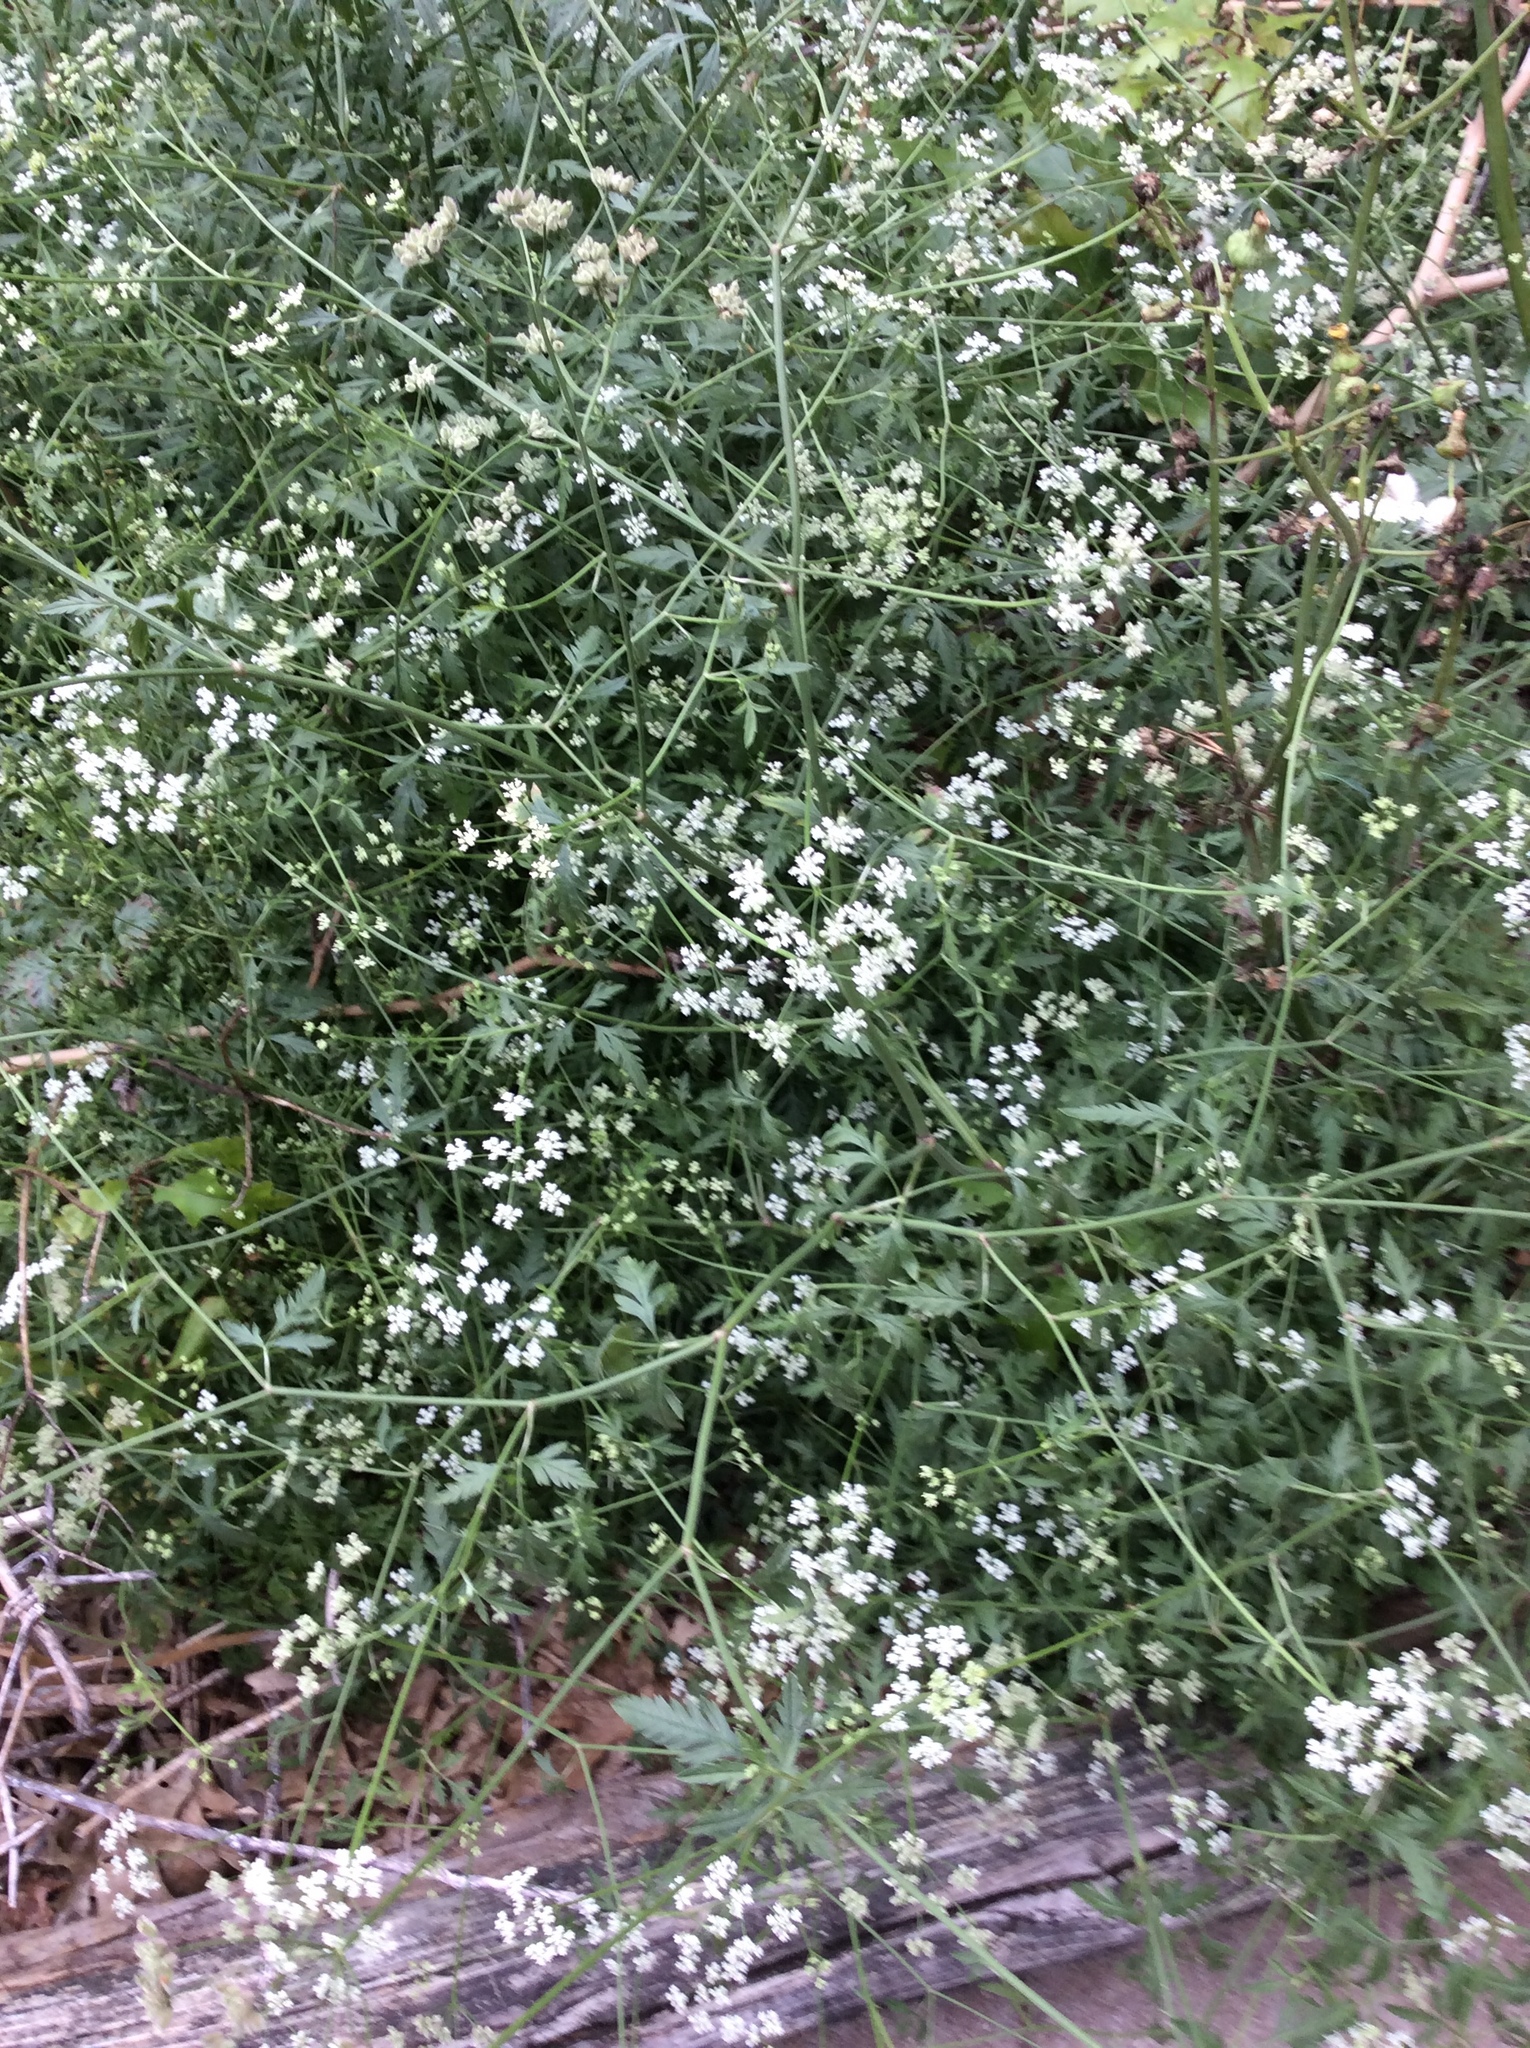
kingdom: Plantae
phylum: Tracheophyta
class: Magnoliopsida
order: Apiales
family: Apiaceae
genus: Torilis
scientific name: Torilis arvensis
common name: Spreading hedge-parsley
